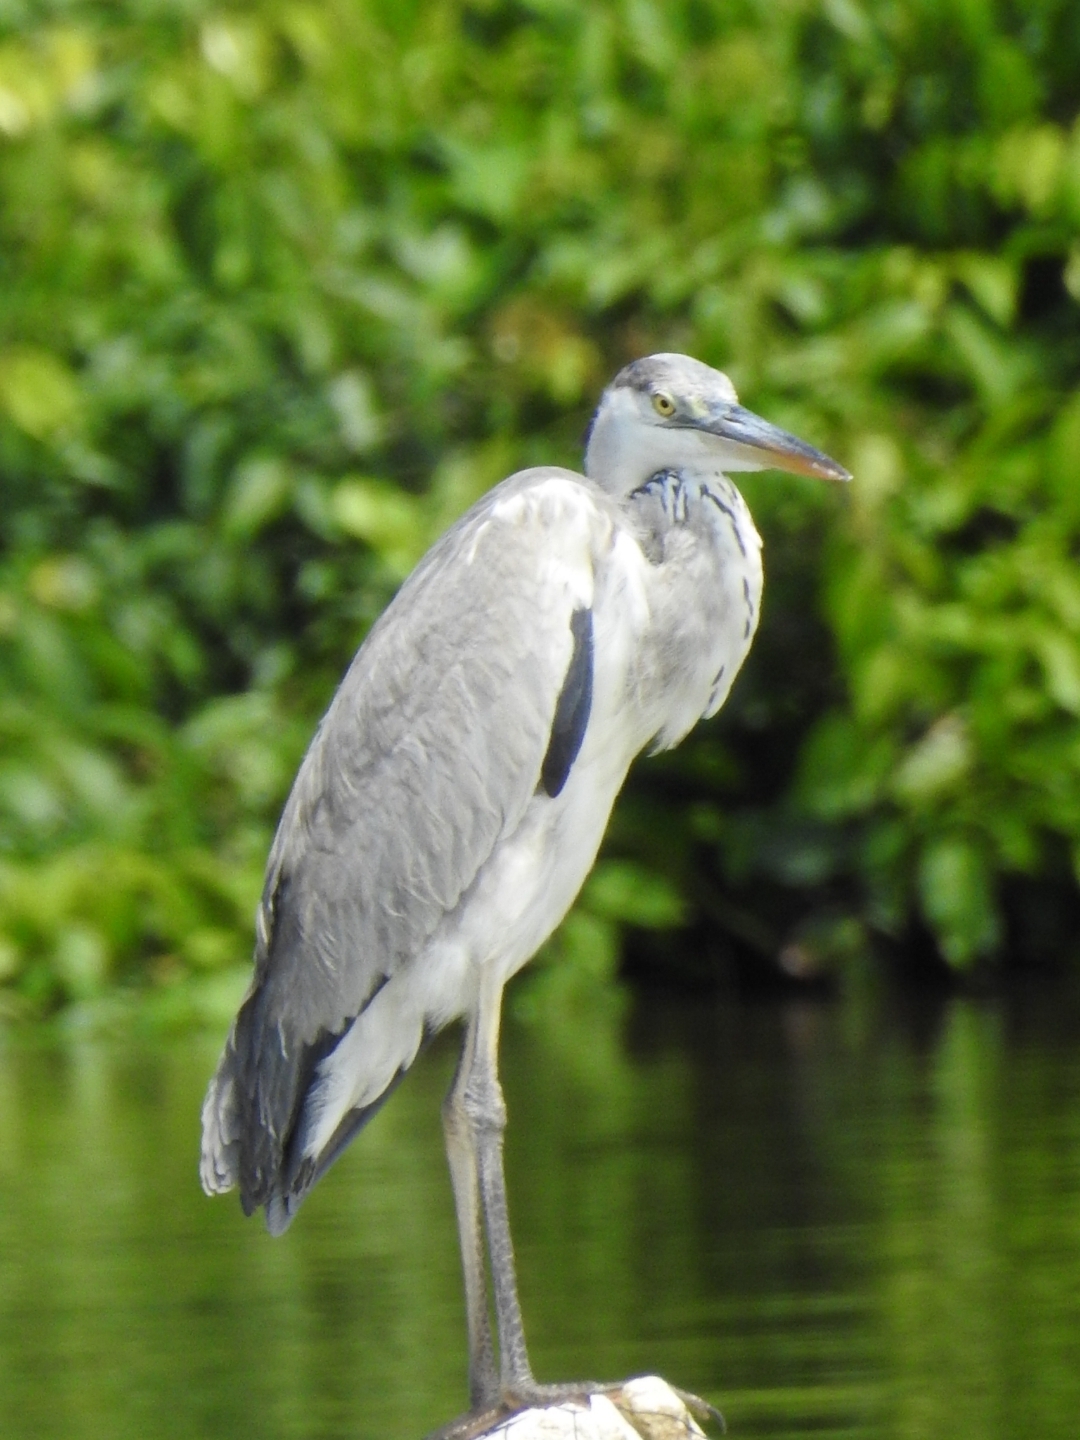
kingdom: Animalia
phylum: Chordata
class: Aves
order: Pelecaniformes
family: Ardeidae
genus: Ardea
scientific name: Ardea cinerea
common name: Grey heron
